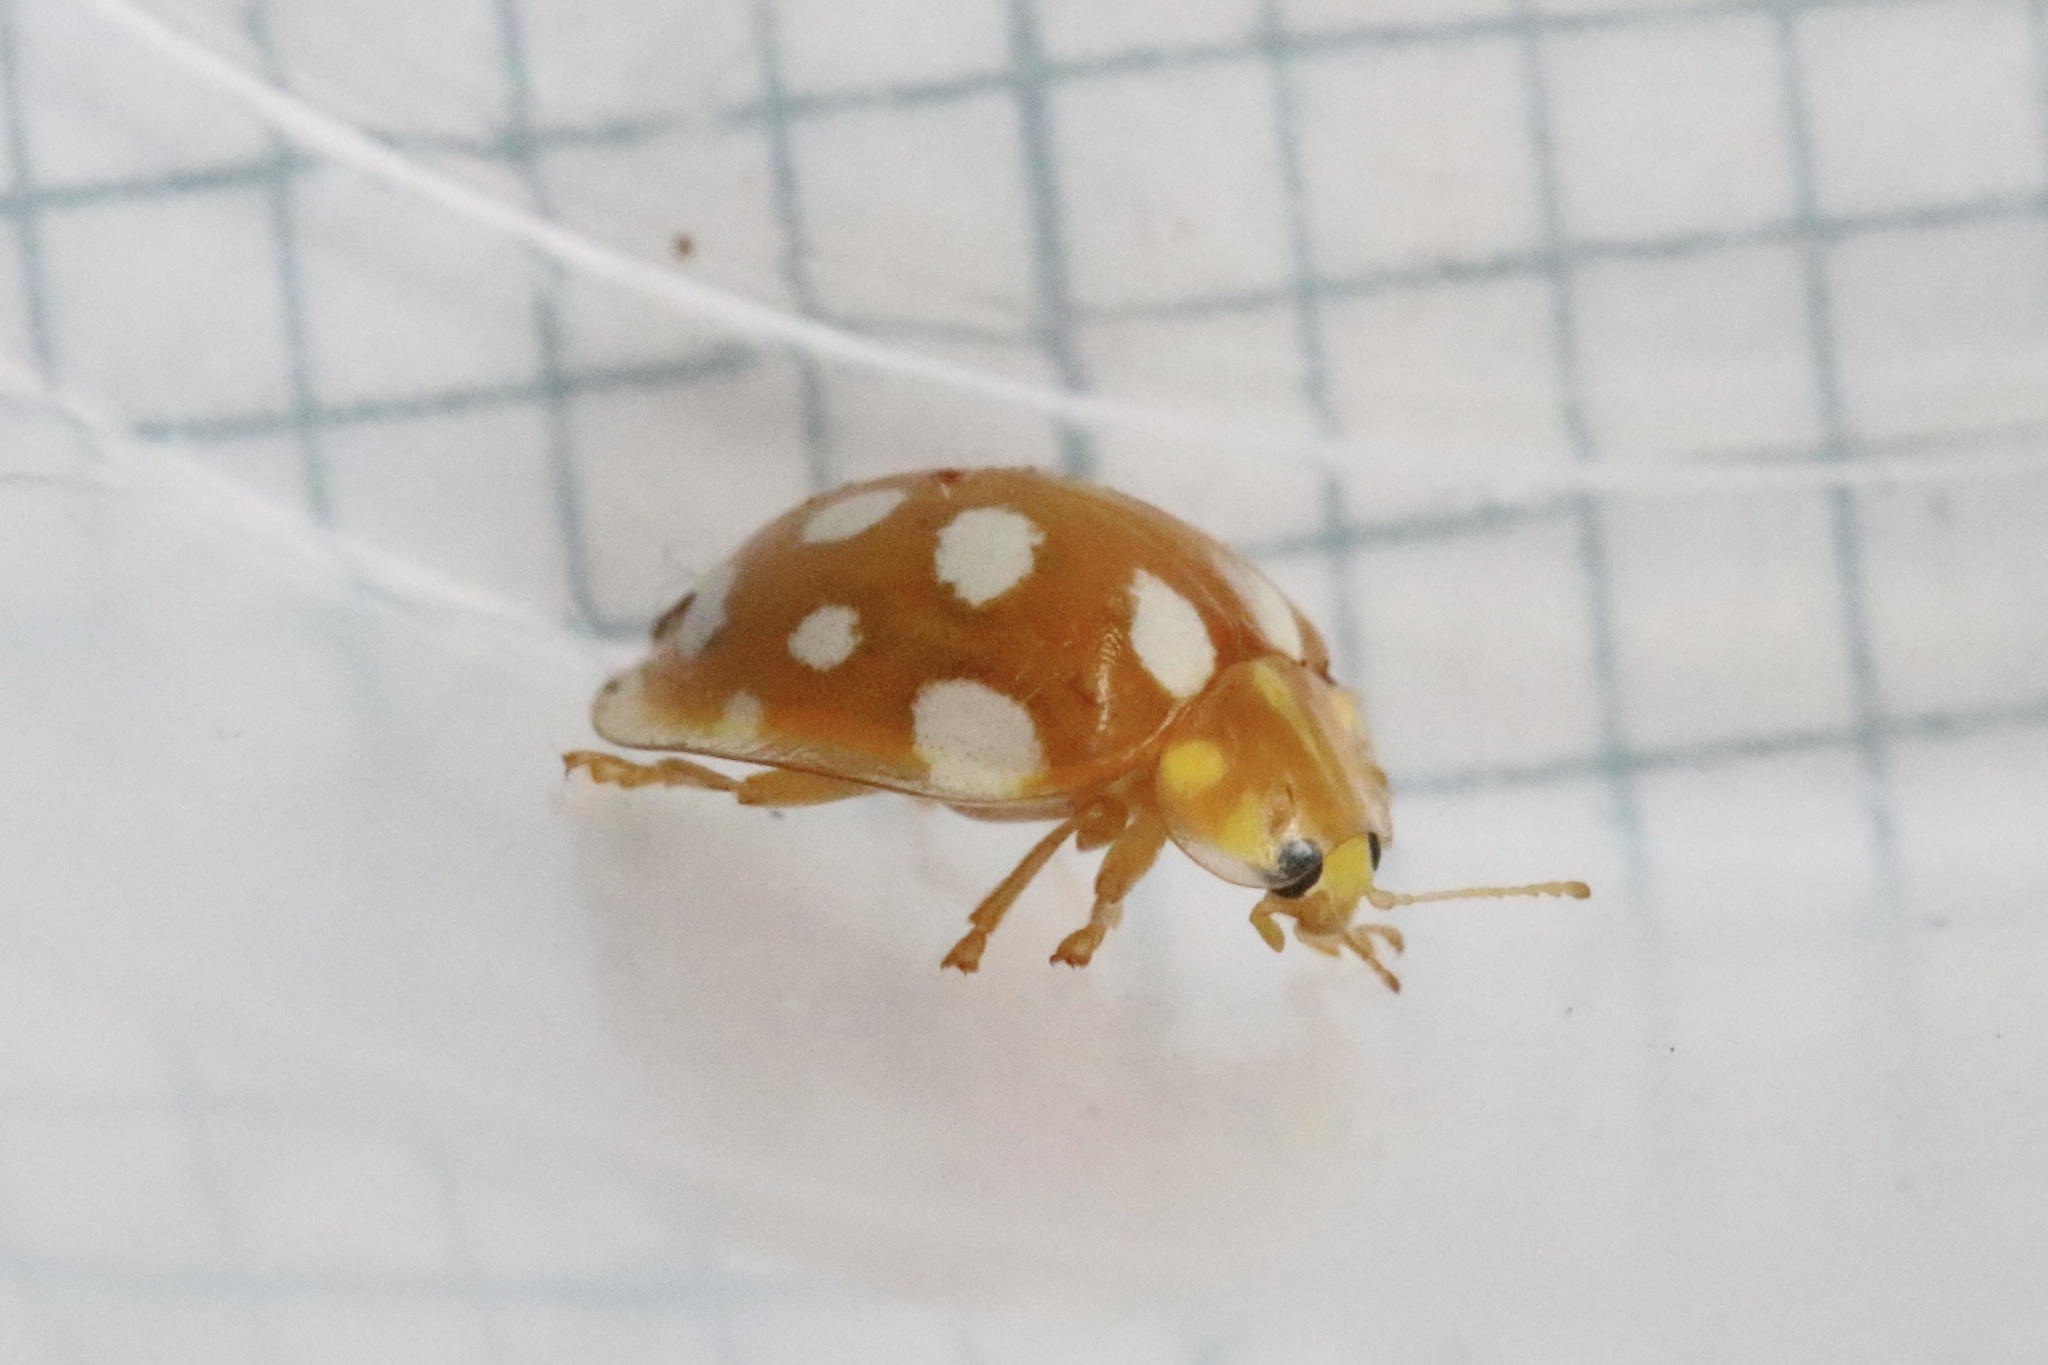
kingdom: Animalia
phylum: Arthropoda
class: Insecta
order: Coleoptera
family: Coccinellidae
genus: Halyzia
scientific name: Halyzia sedecimguttata
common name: Orange ladybird
